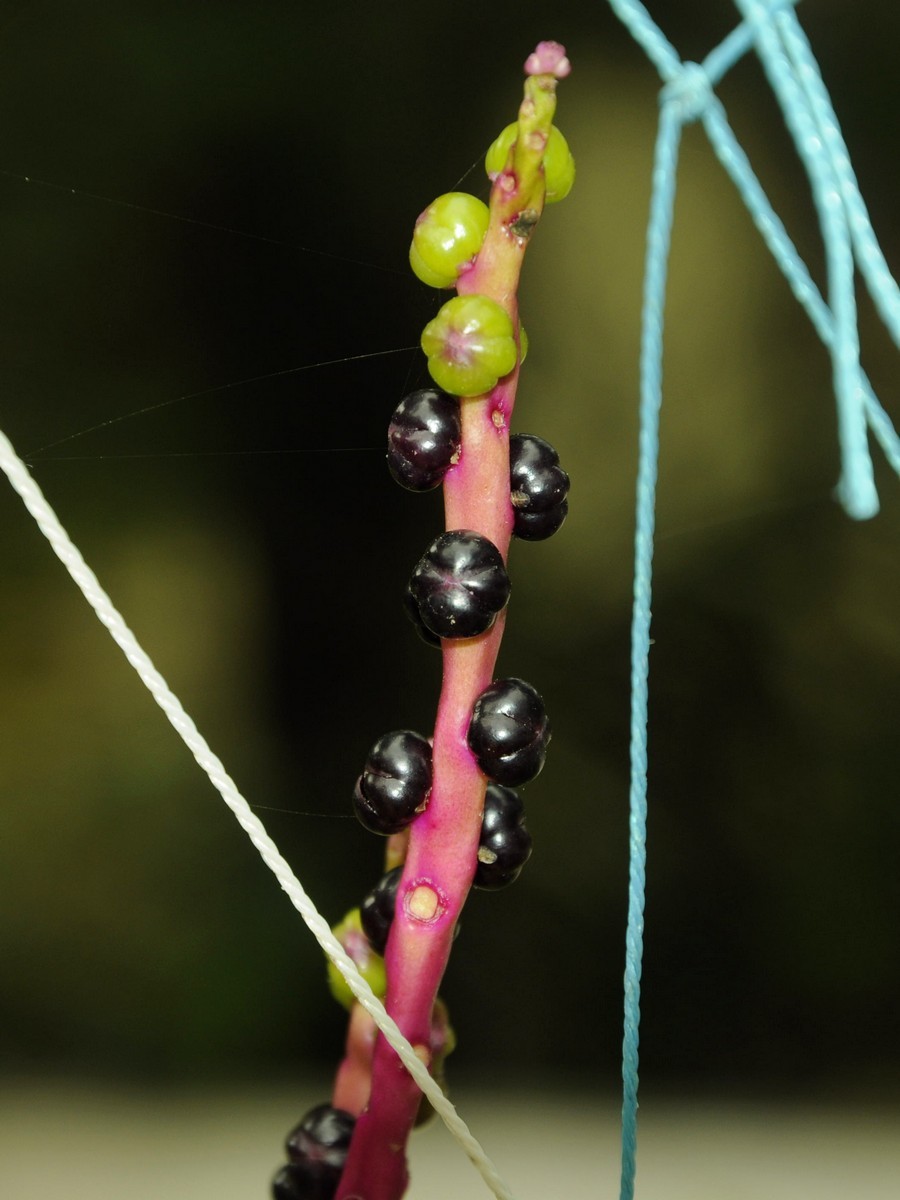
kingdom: Plantae
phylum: Tracheophyta
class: Magnoliopsida
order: Caryophyllales
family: Basellaceae
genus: Basella
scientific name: Basella alba
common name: Indian spinach
